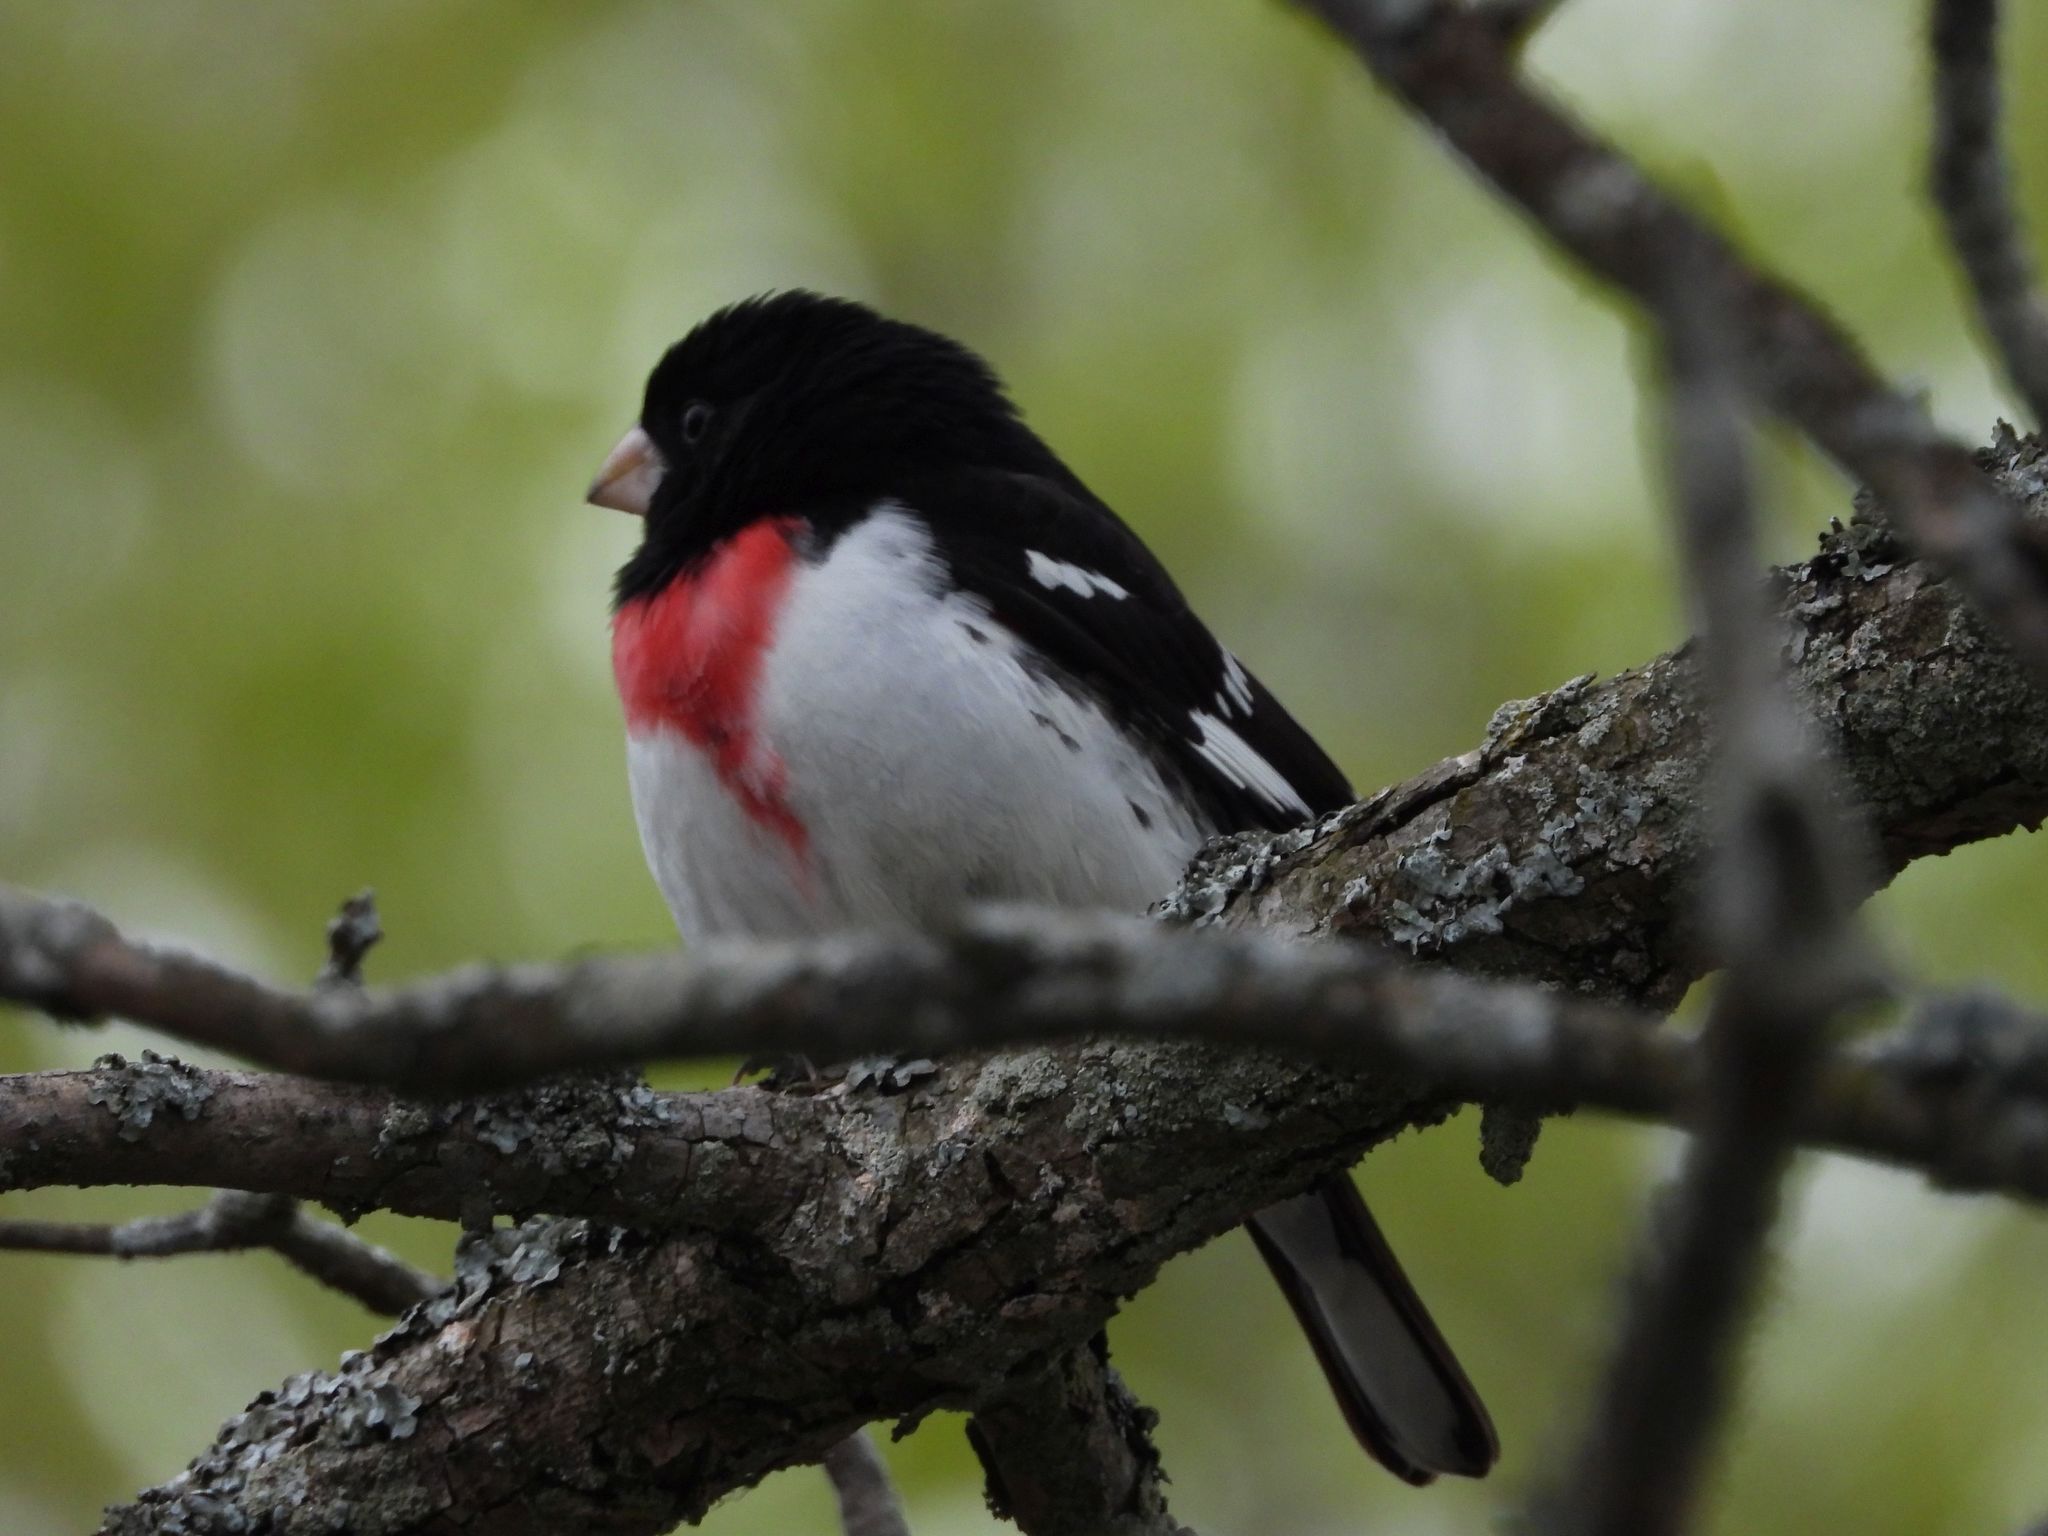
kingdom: Animalia
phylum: Chordata
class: Aves
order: Passeriformes
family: Cardinalidae
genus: Pheucticus
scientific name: Pheucticus ludovicianus
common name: Rose-breasted grosbeak
